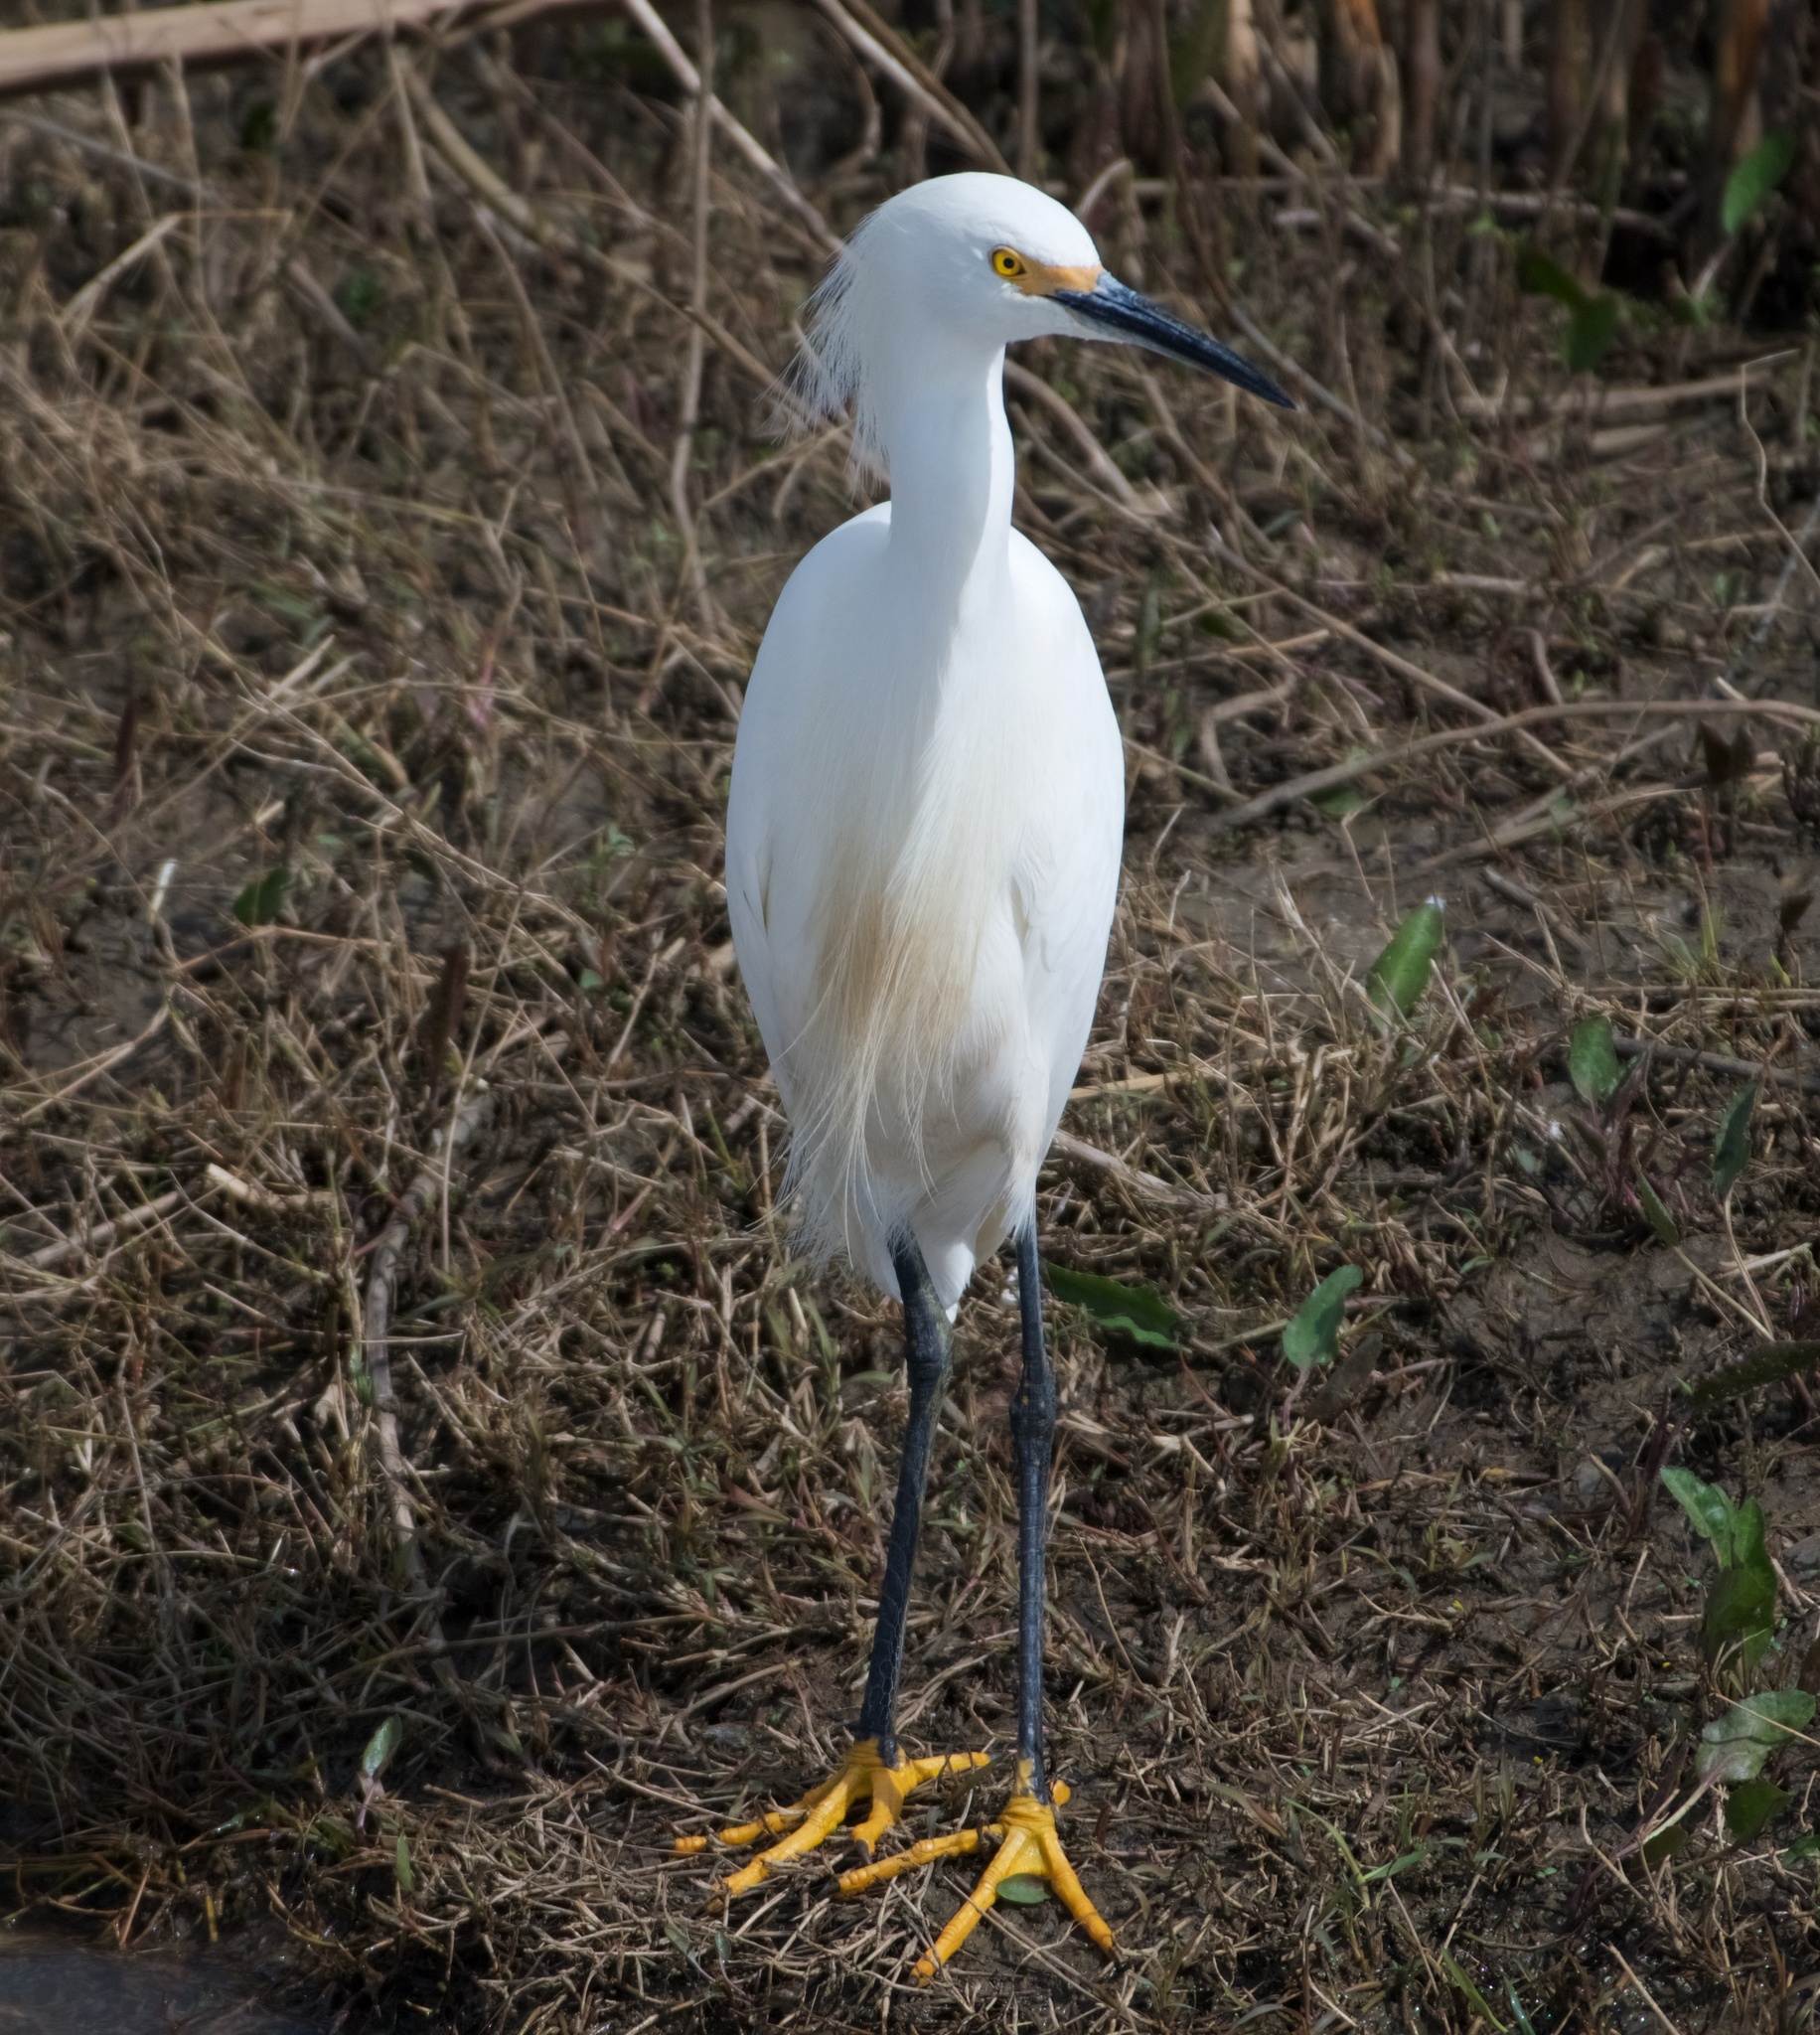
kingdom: Animalia
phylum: Chordata
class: Aves
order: Pelecaniformes
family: Ardeidae
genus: Egretta
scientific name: Egretta thula
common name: Snowy egret
